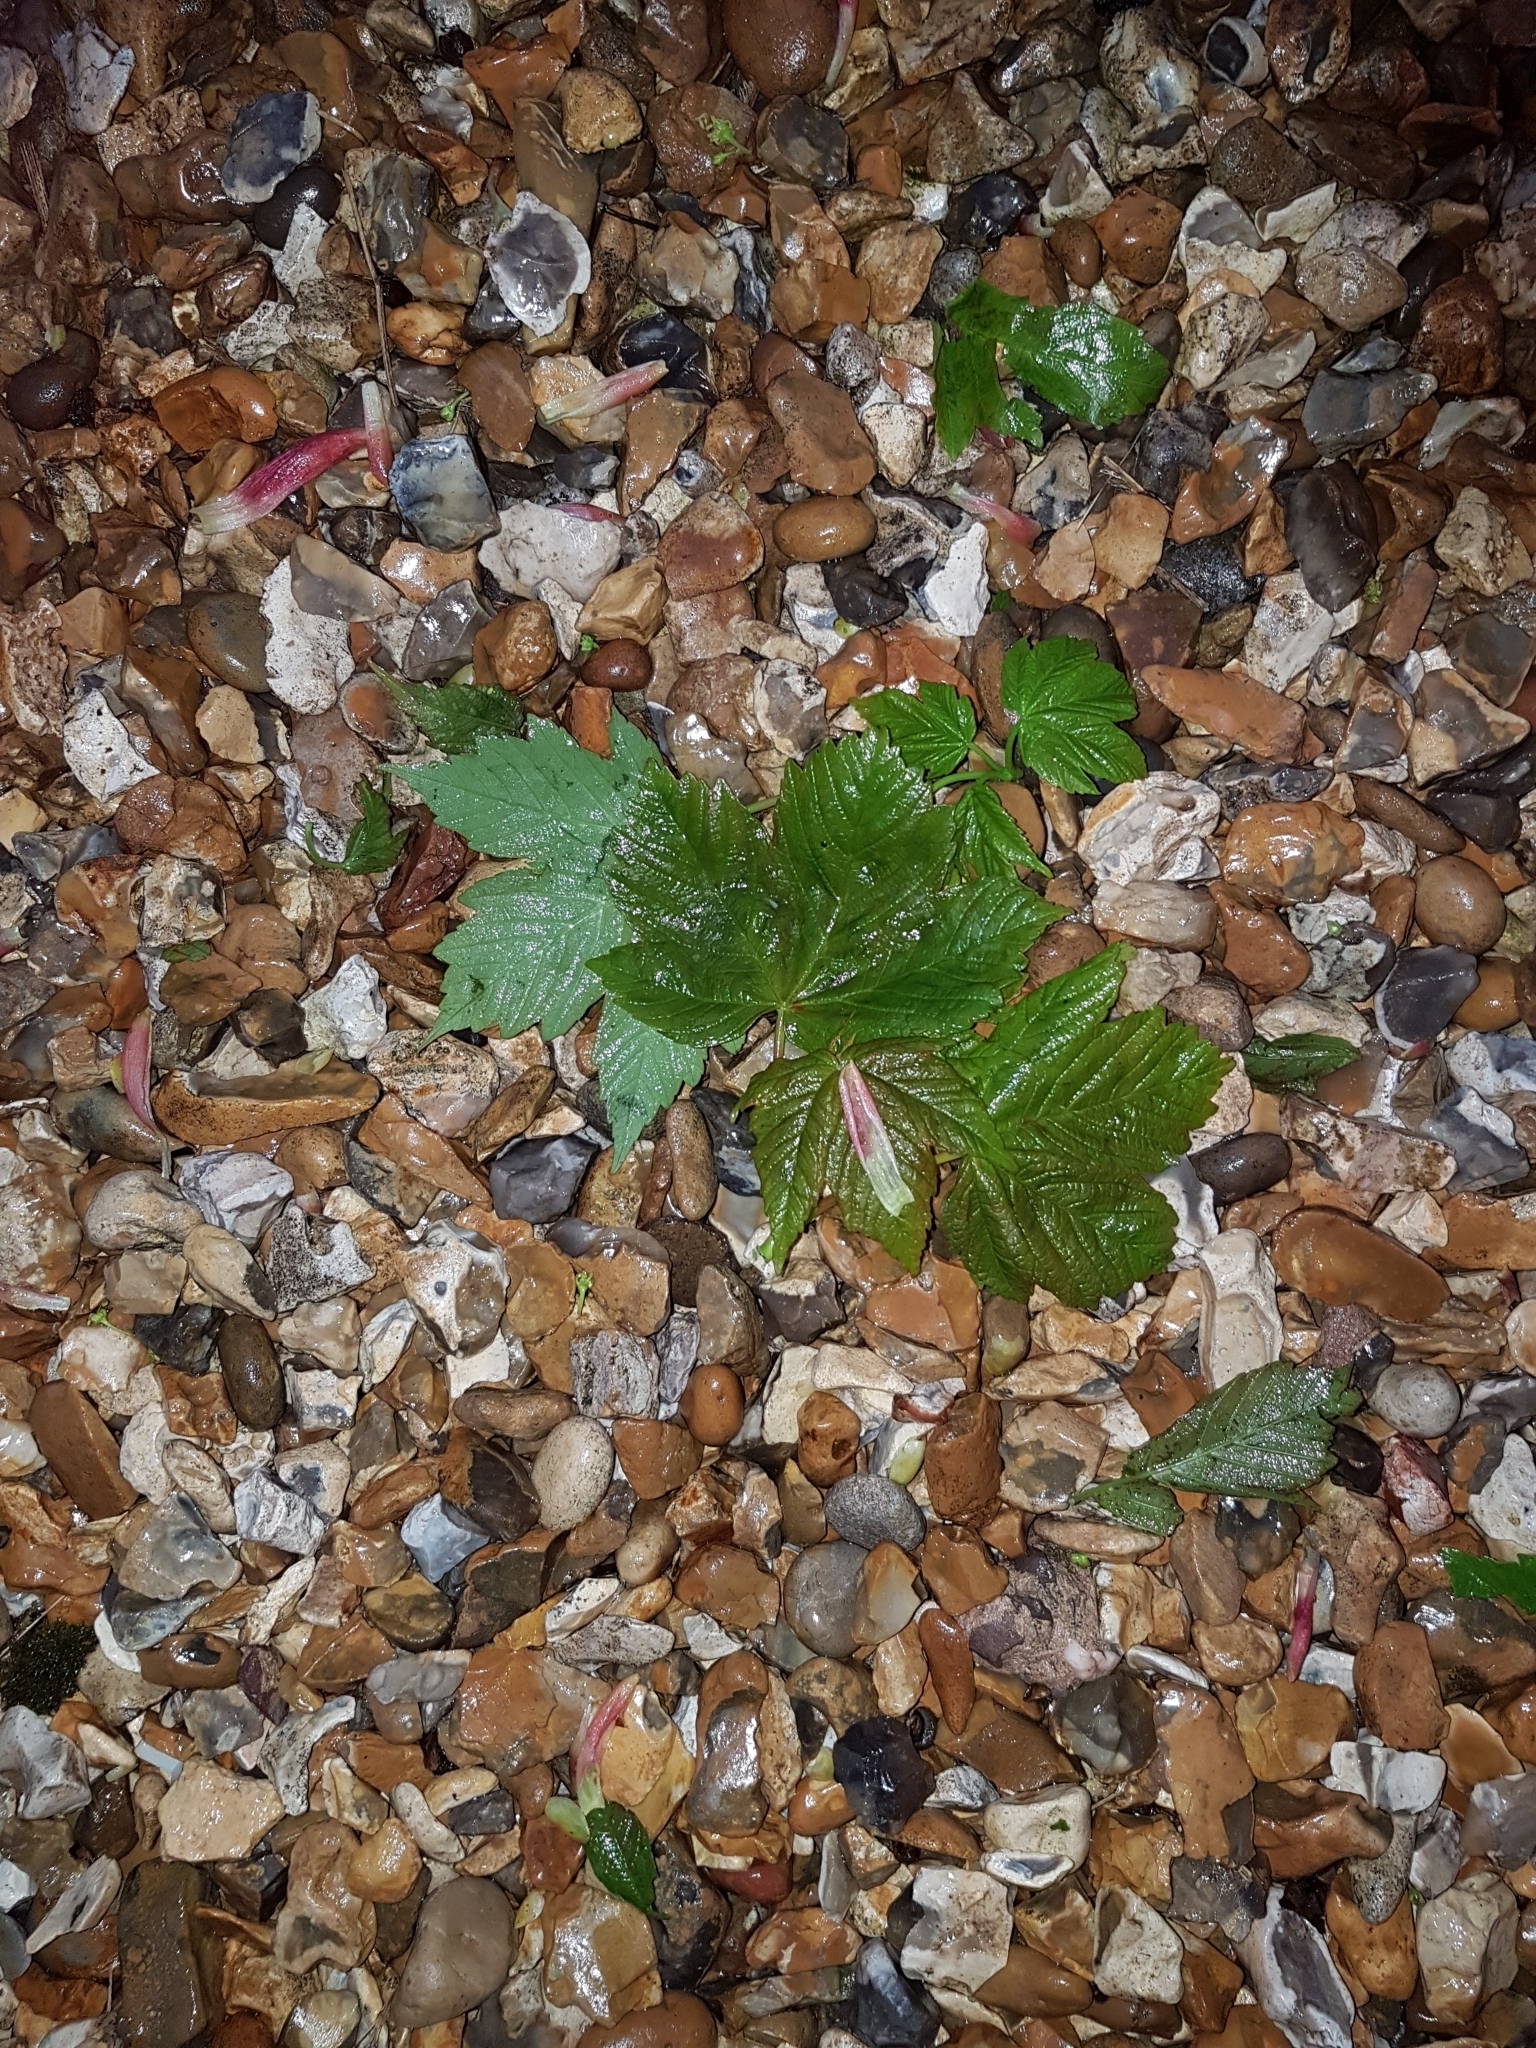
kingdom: Plantae
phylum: Tracheophyta
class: Magnoliopsida
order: Sapindales
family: Sapindaceae
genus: Acer
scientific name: Acer pseudoplatanus
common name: Sycamore
